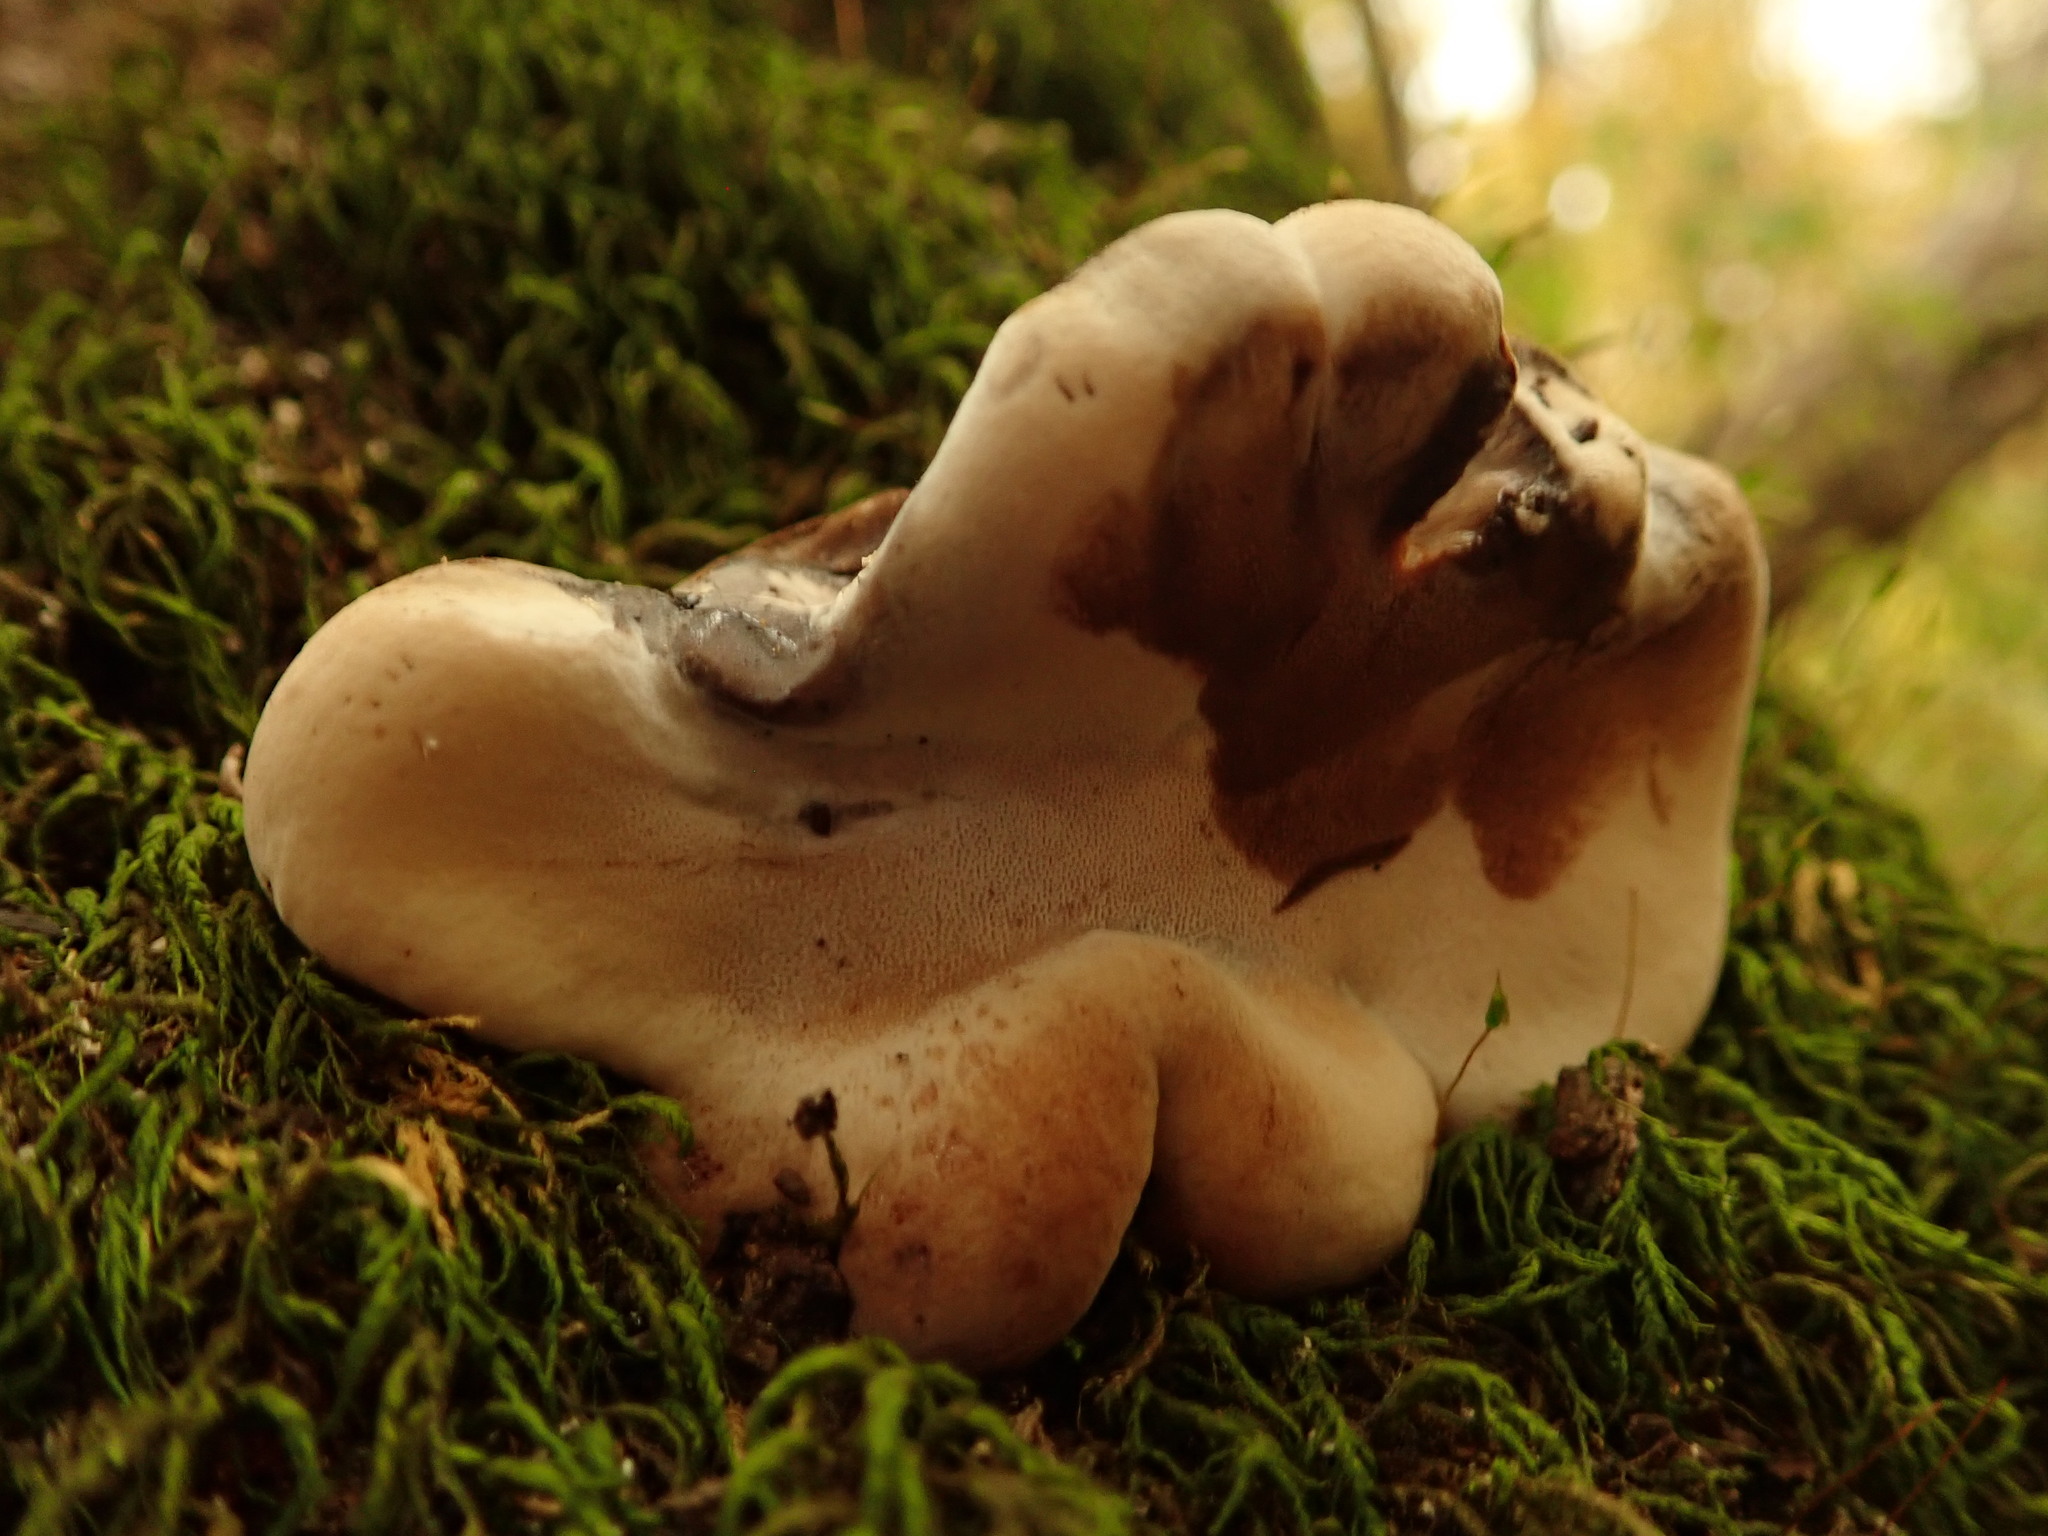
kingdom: Fungi
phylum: Basidiomycota
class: Agaricomycetes
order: Polyporales
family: Ischnodermataceae
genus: Ischnoderma
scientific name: Ischnoderma resinosum
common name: Resinous polypore
